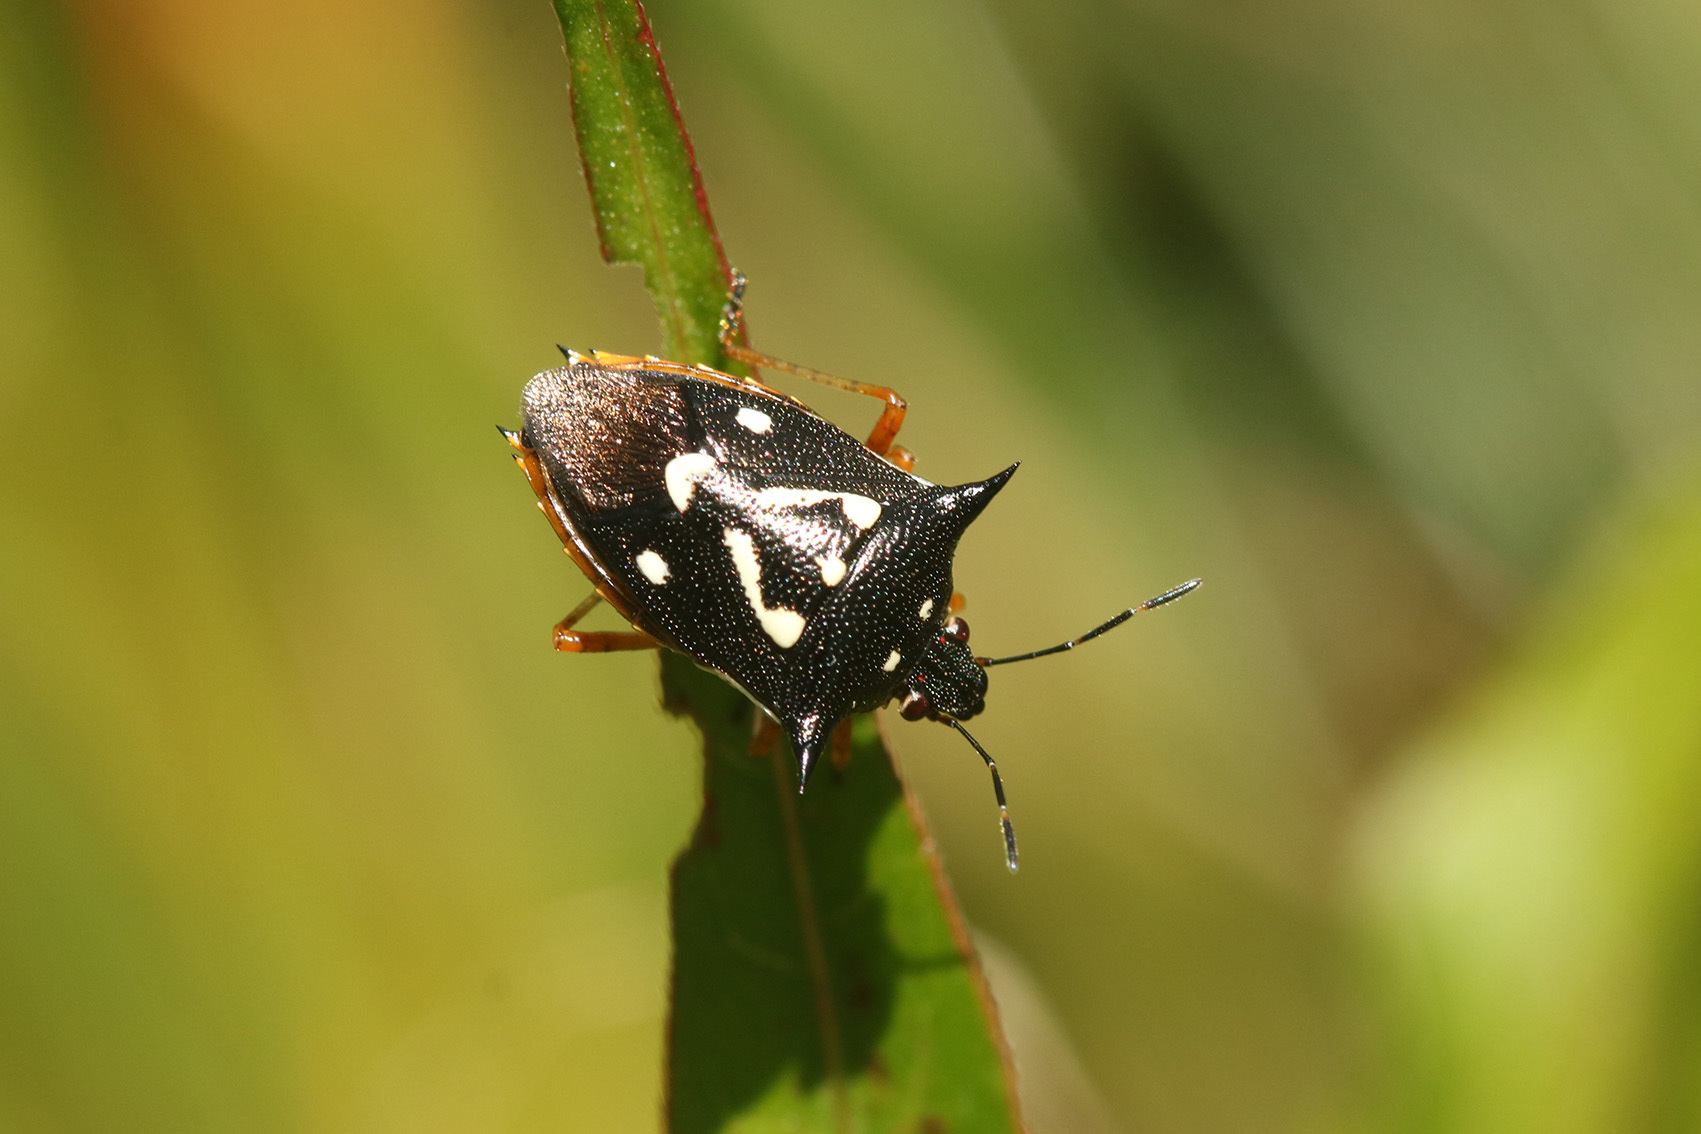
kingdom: Animalia
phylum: Arthropoda
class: Insecta
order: Hemiptera
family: Pentatomidae
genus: Mormidea
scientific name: Mormidea v-luteum
